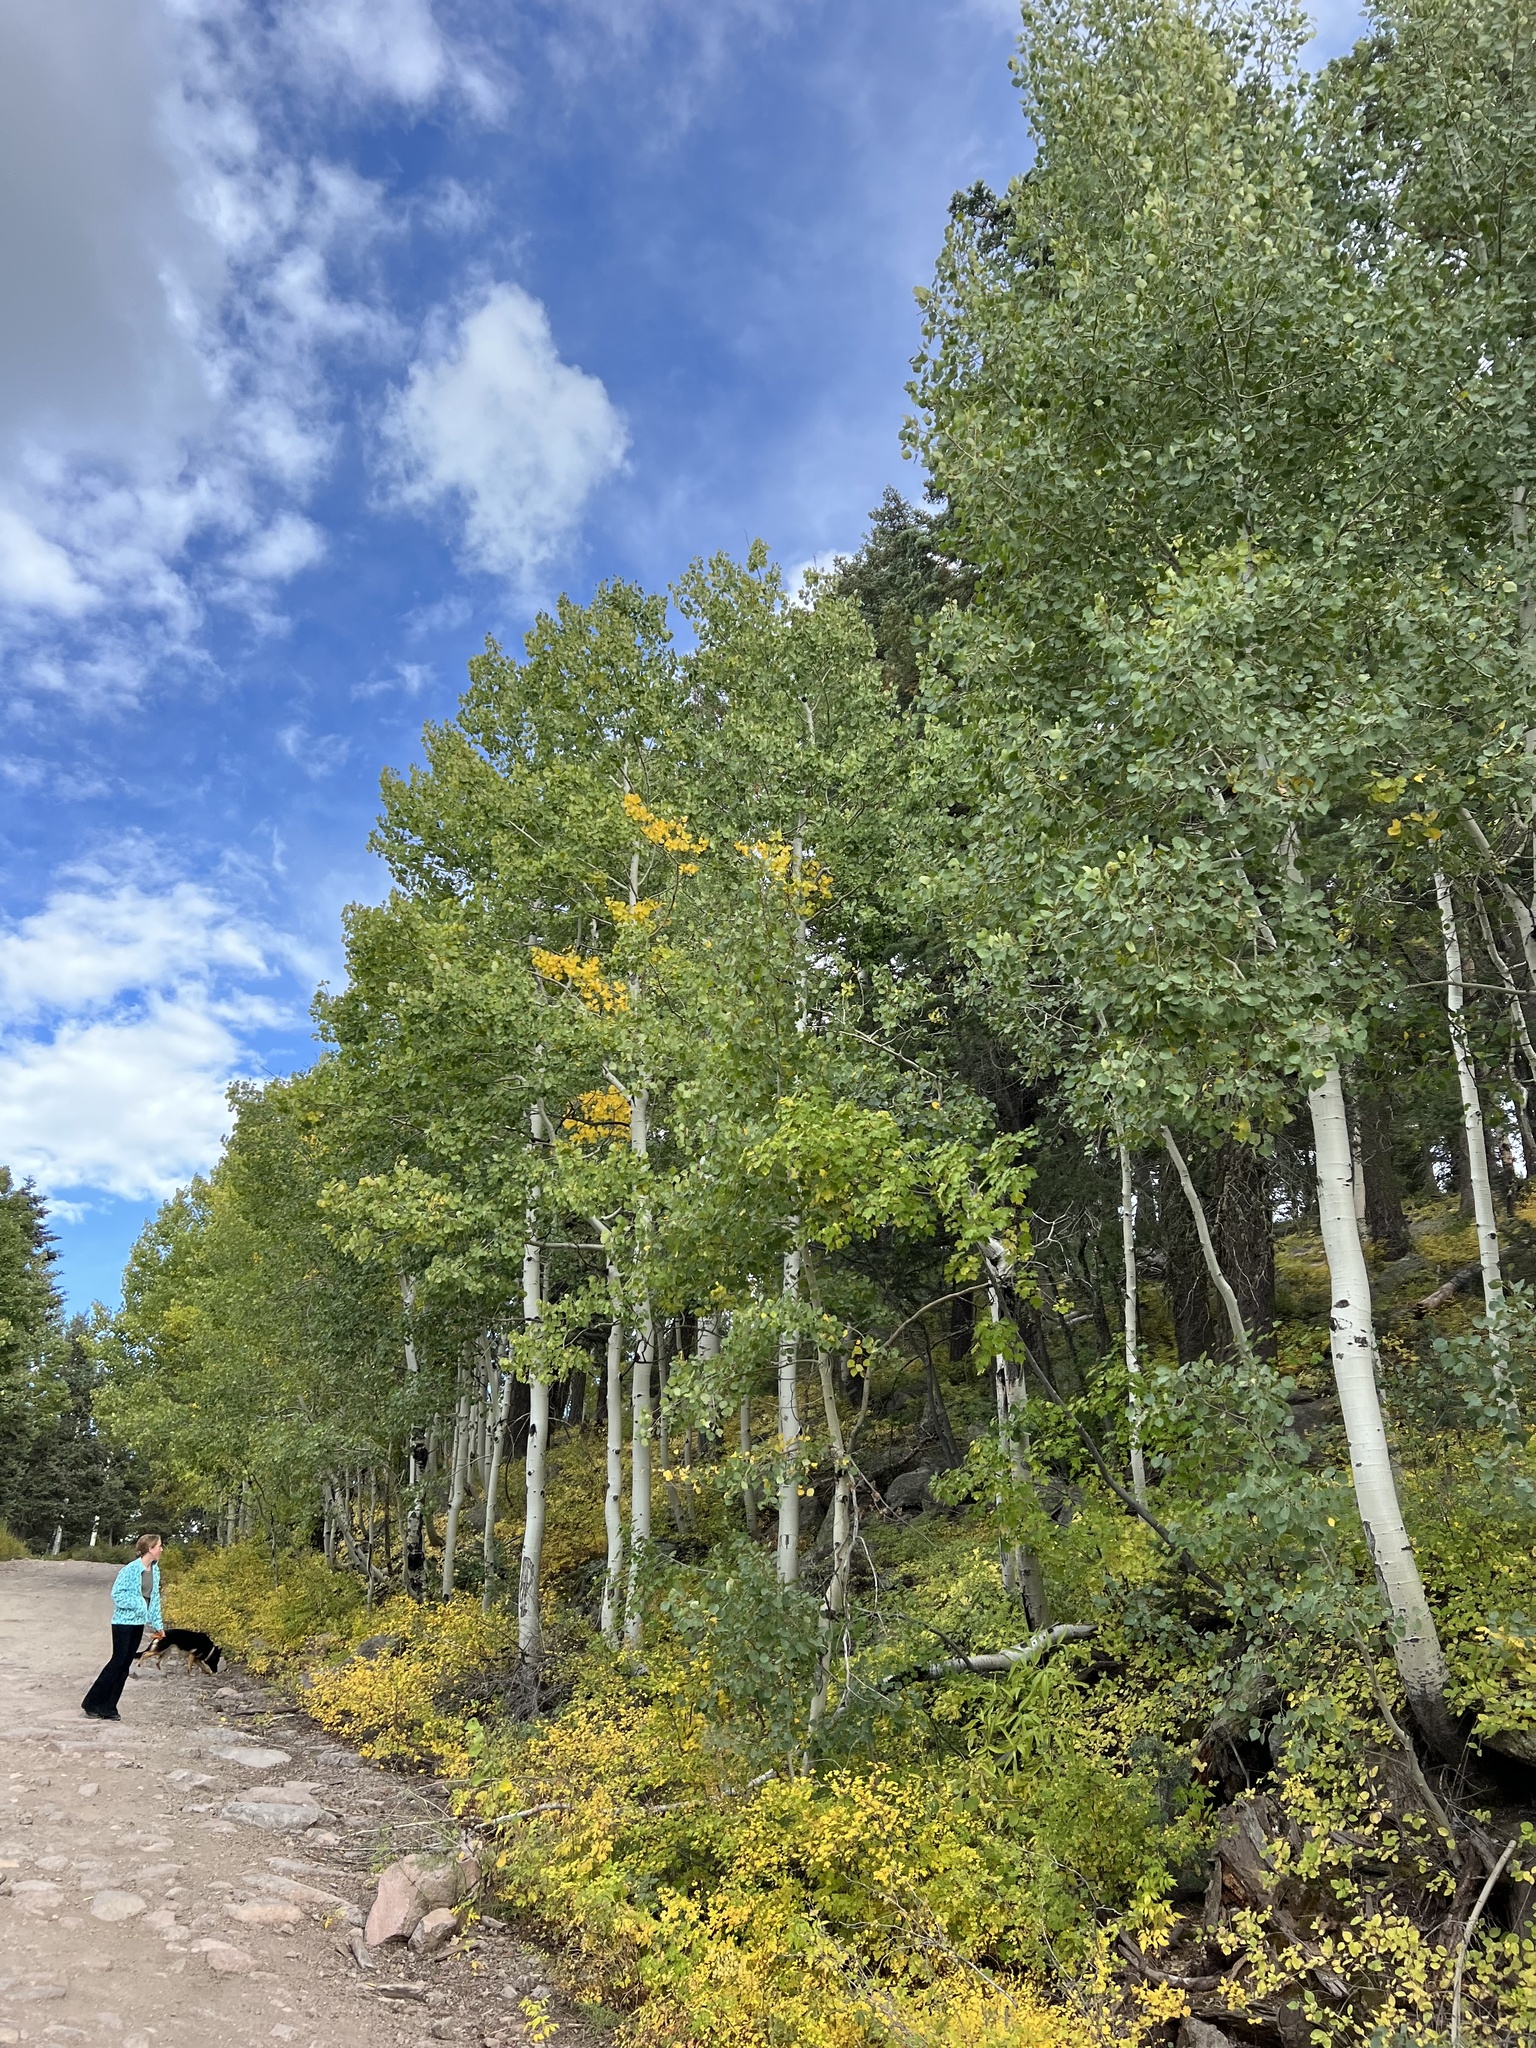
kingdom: Plantae
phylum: Tracheophyta
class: Magnoliopsida
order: Malpighiales
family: Salicaceae
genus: Populus
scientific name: Populus tremuloides
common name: Quaking aspen
